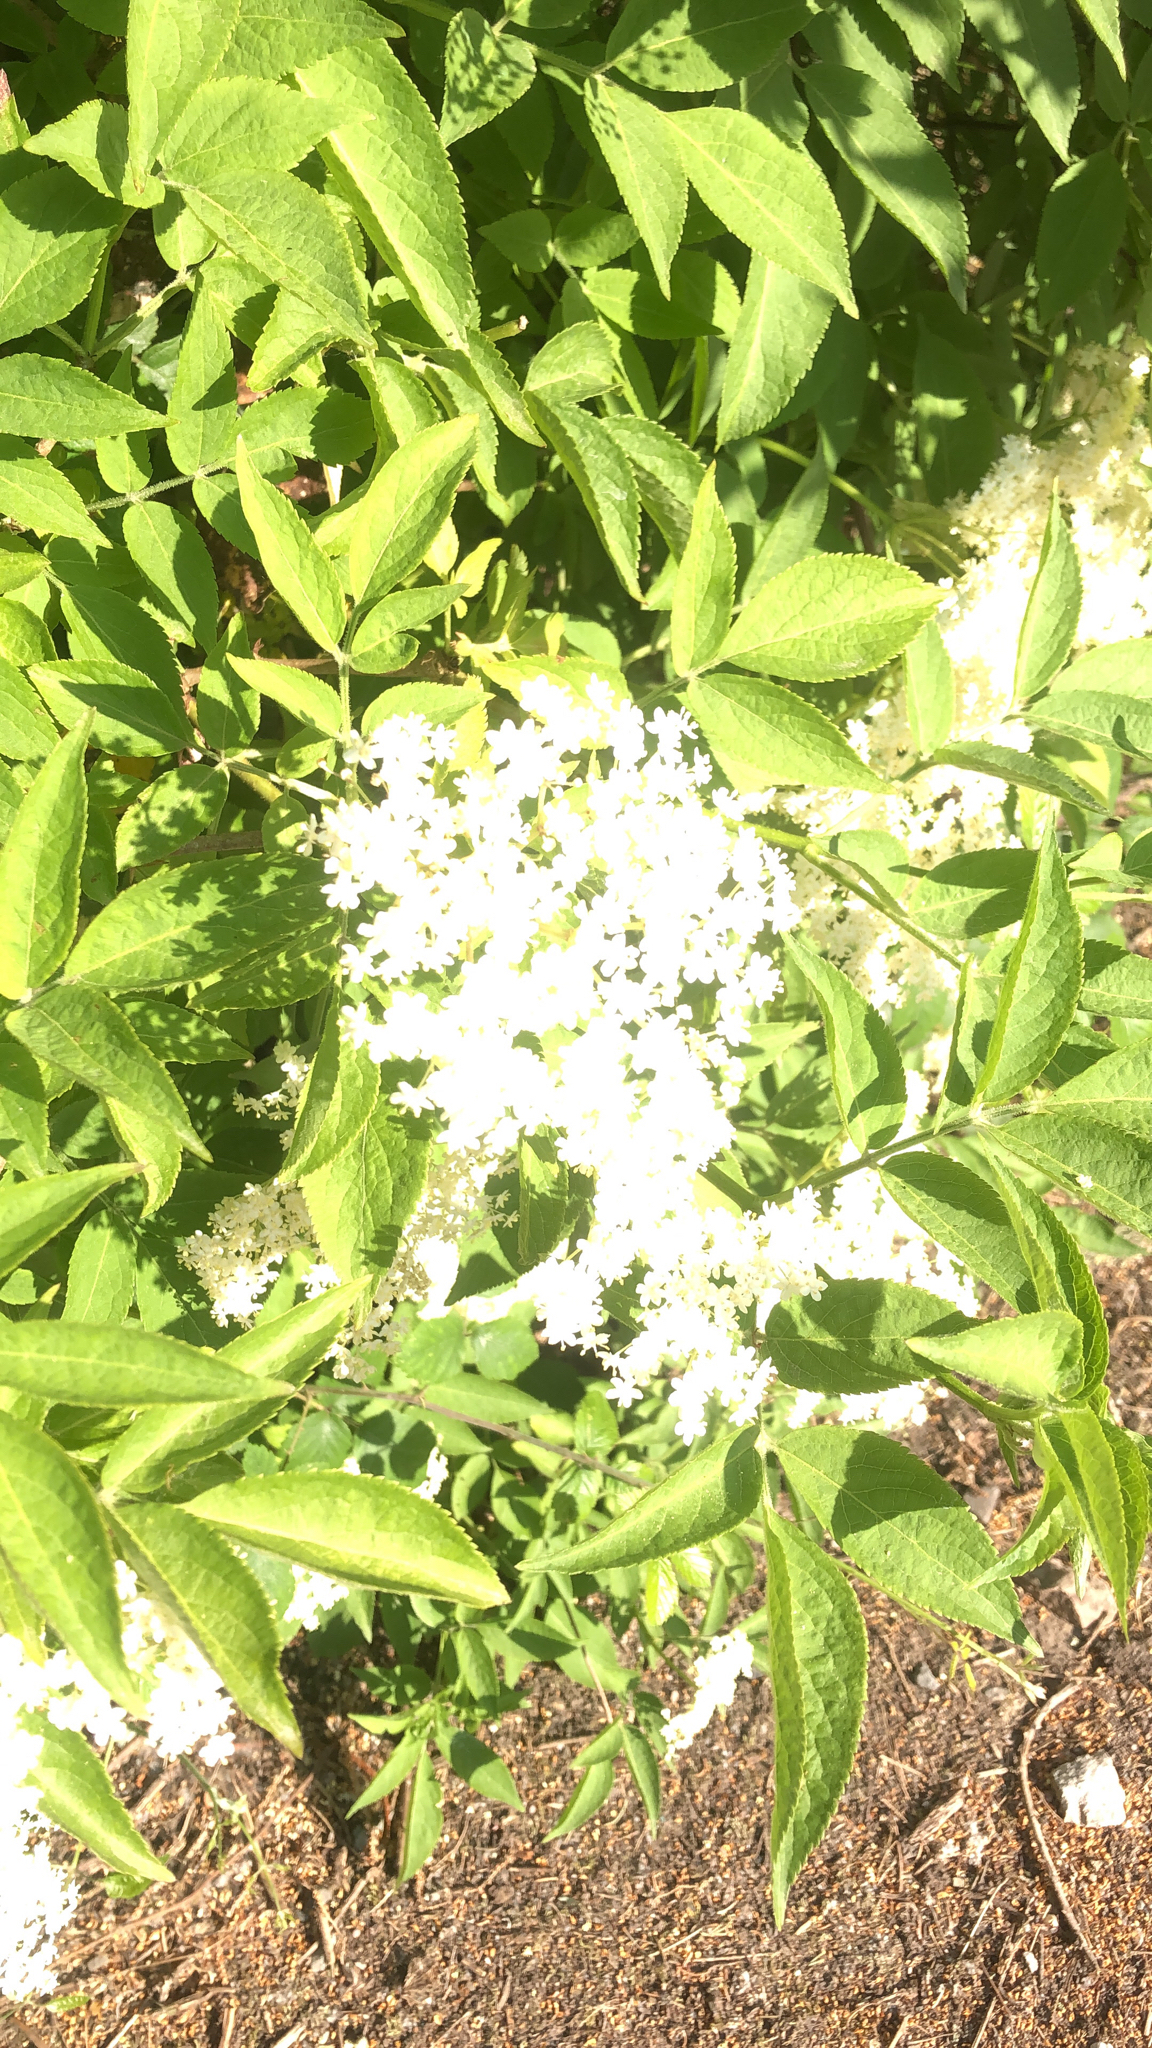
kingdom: Plantae
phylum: Tracheophyta
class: Magnoliopsida
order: Dipsacales
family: Viburnaceae
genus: Sambucus
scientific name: Sambucus nigra
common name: Elder
